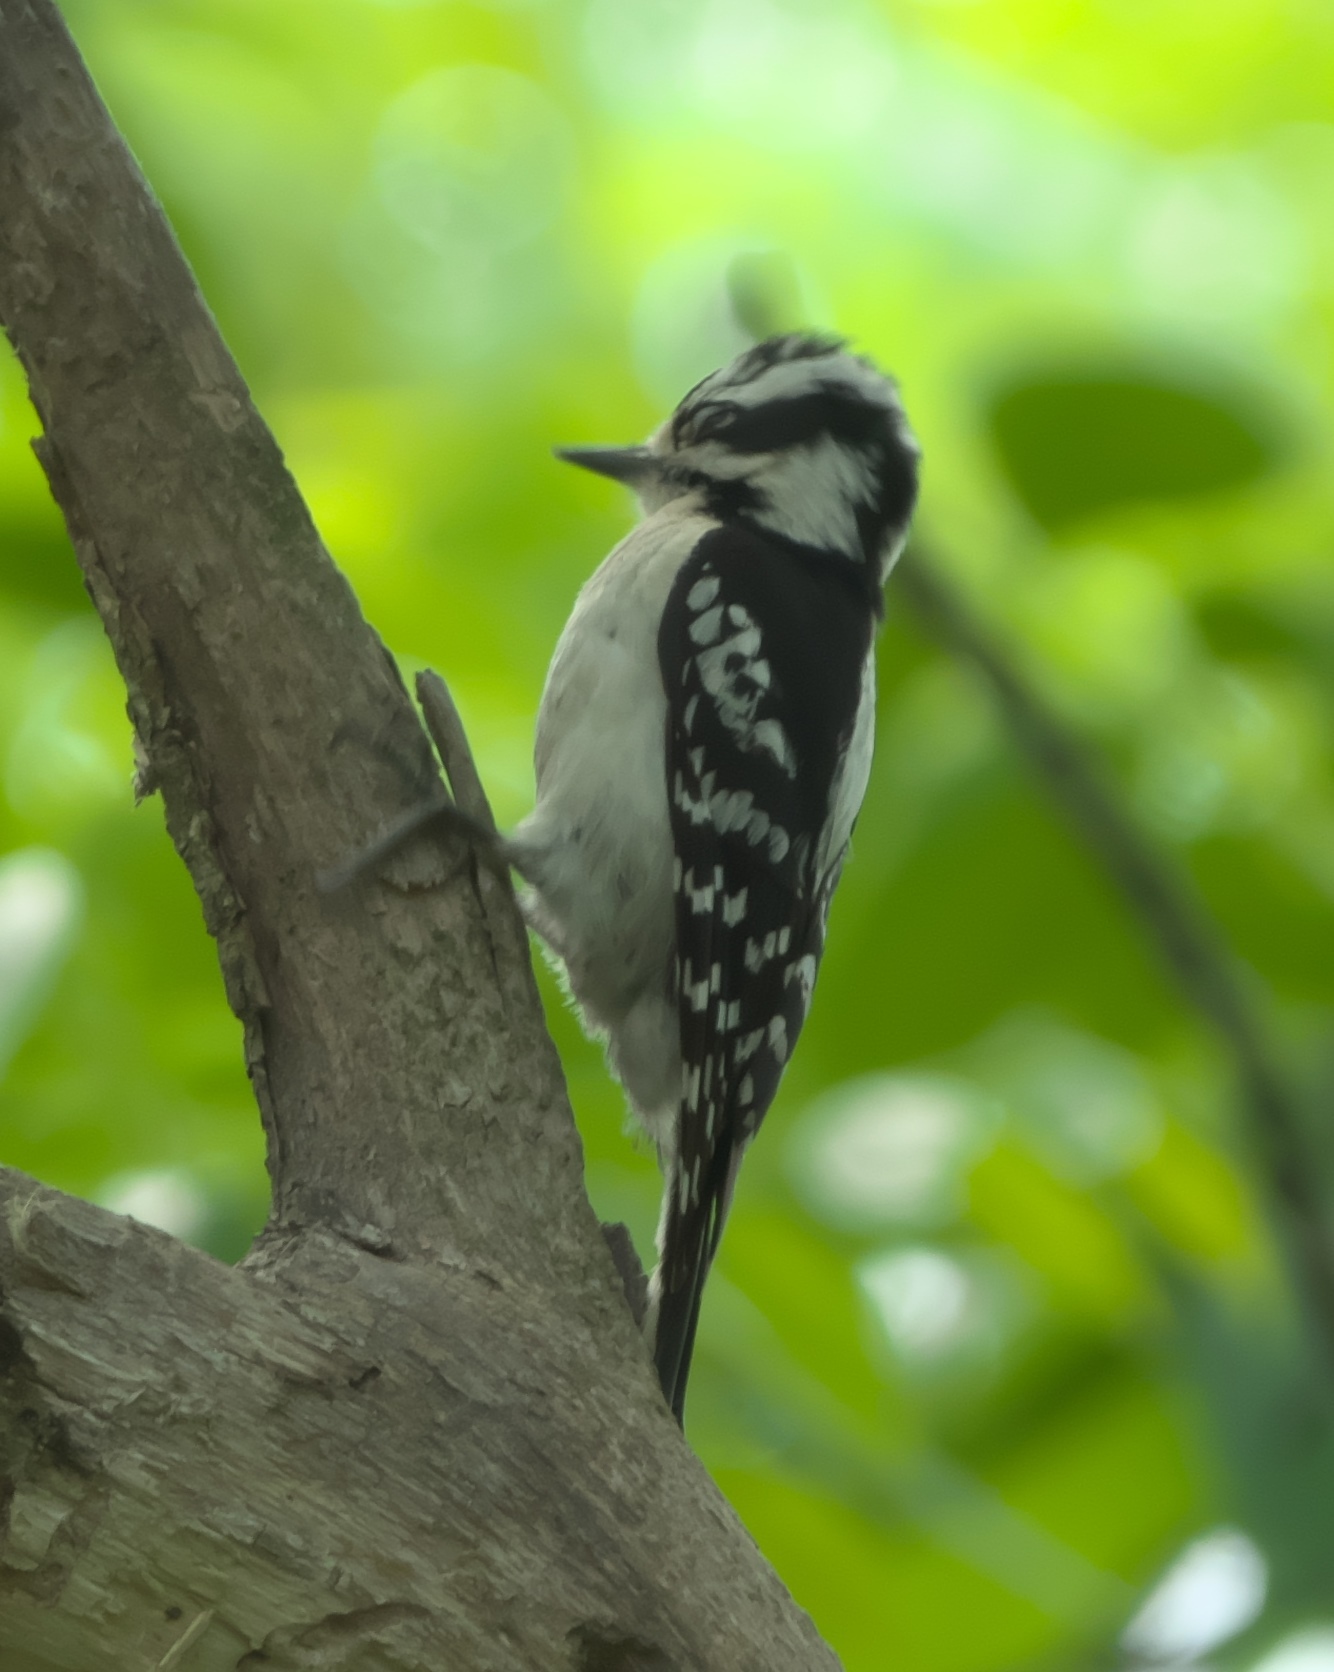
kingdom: Animalia
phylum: Chordata
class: Aves
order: Piciformes
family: Picidae
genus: Dryobates
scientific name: Dryobates pubescens
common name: Downy woodpecker
